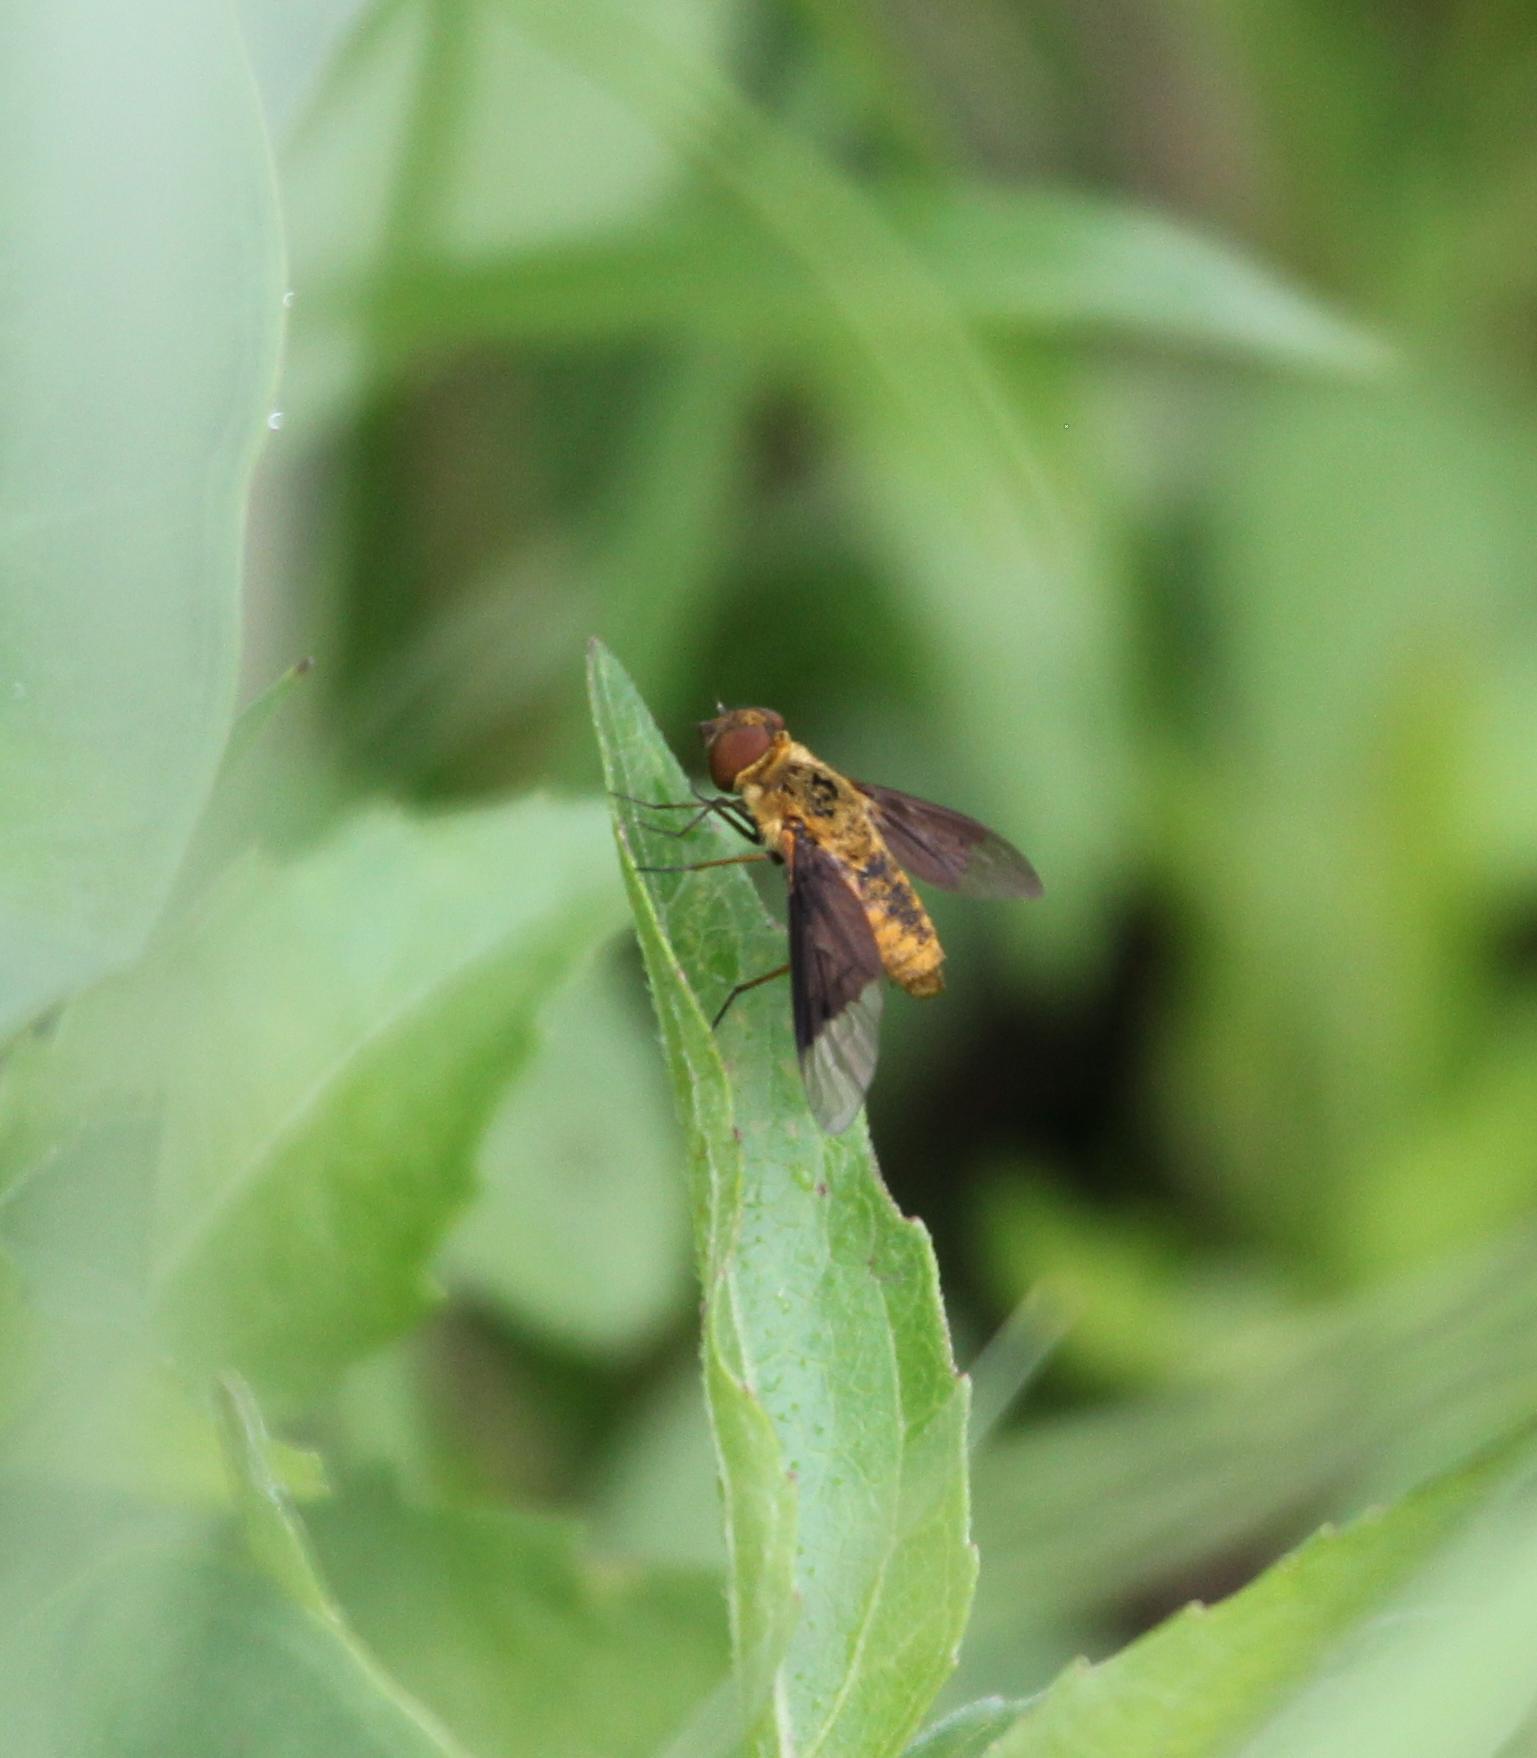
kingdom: Animalia
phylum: Arthropoda
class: Insecta
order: Diptera
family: Bombyliidae
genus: Chrysanthrax
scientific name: Chrysanthrax cypris
